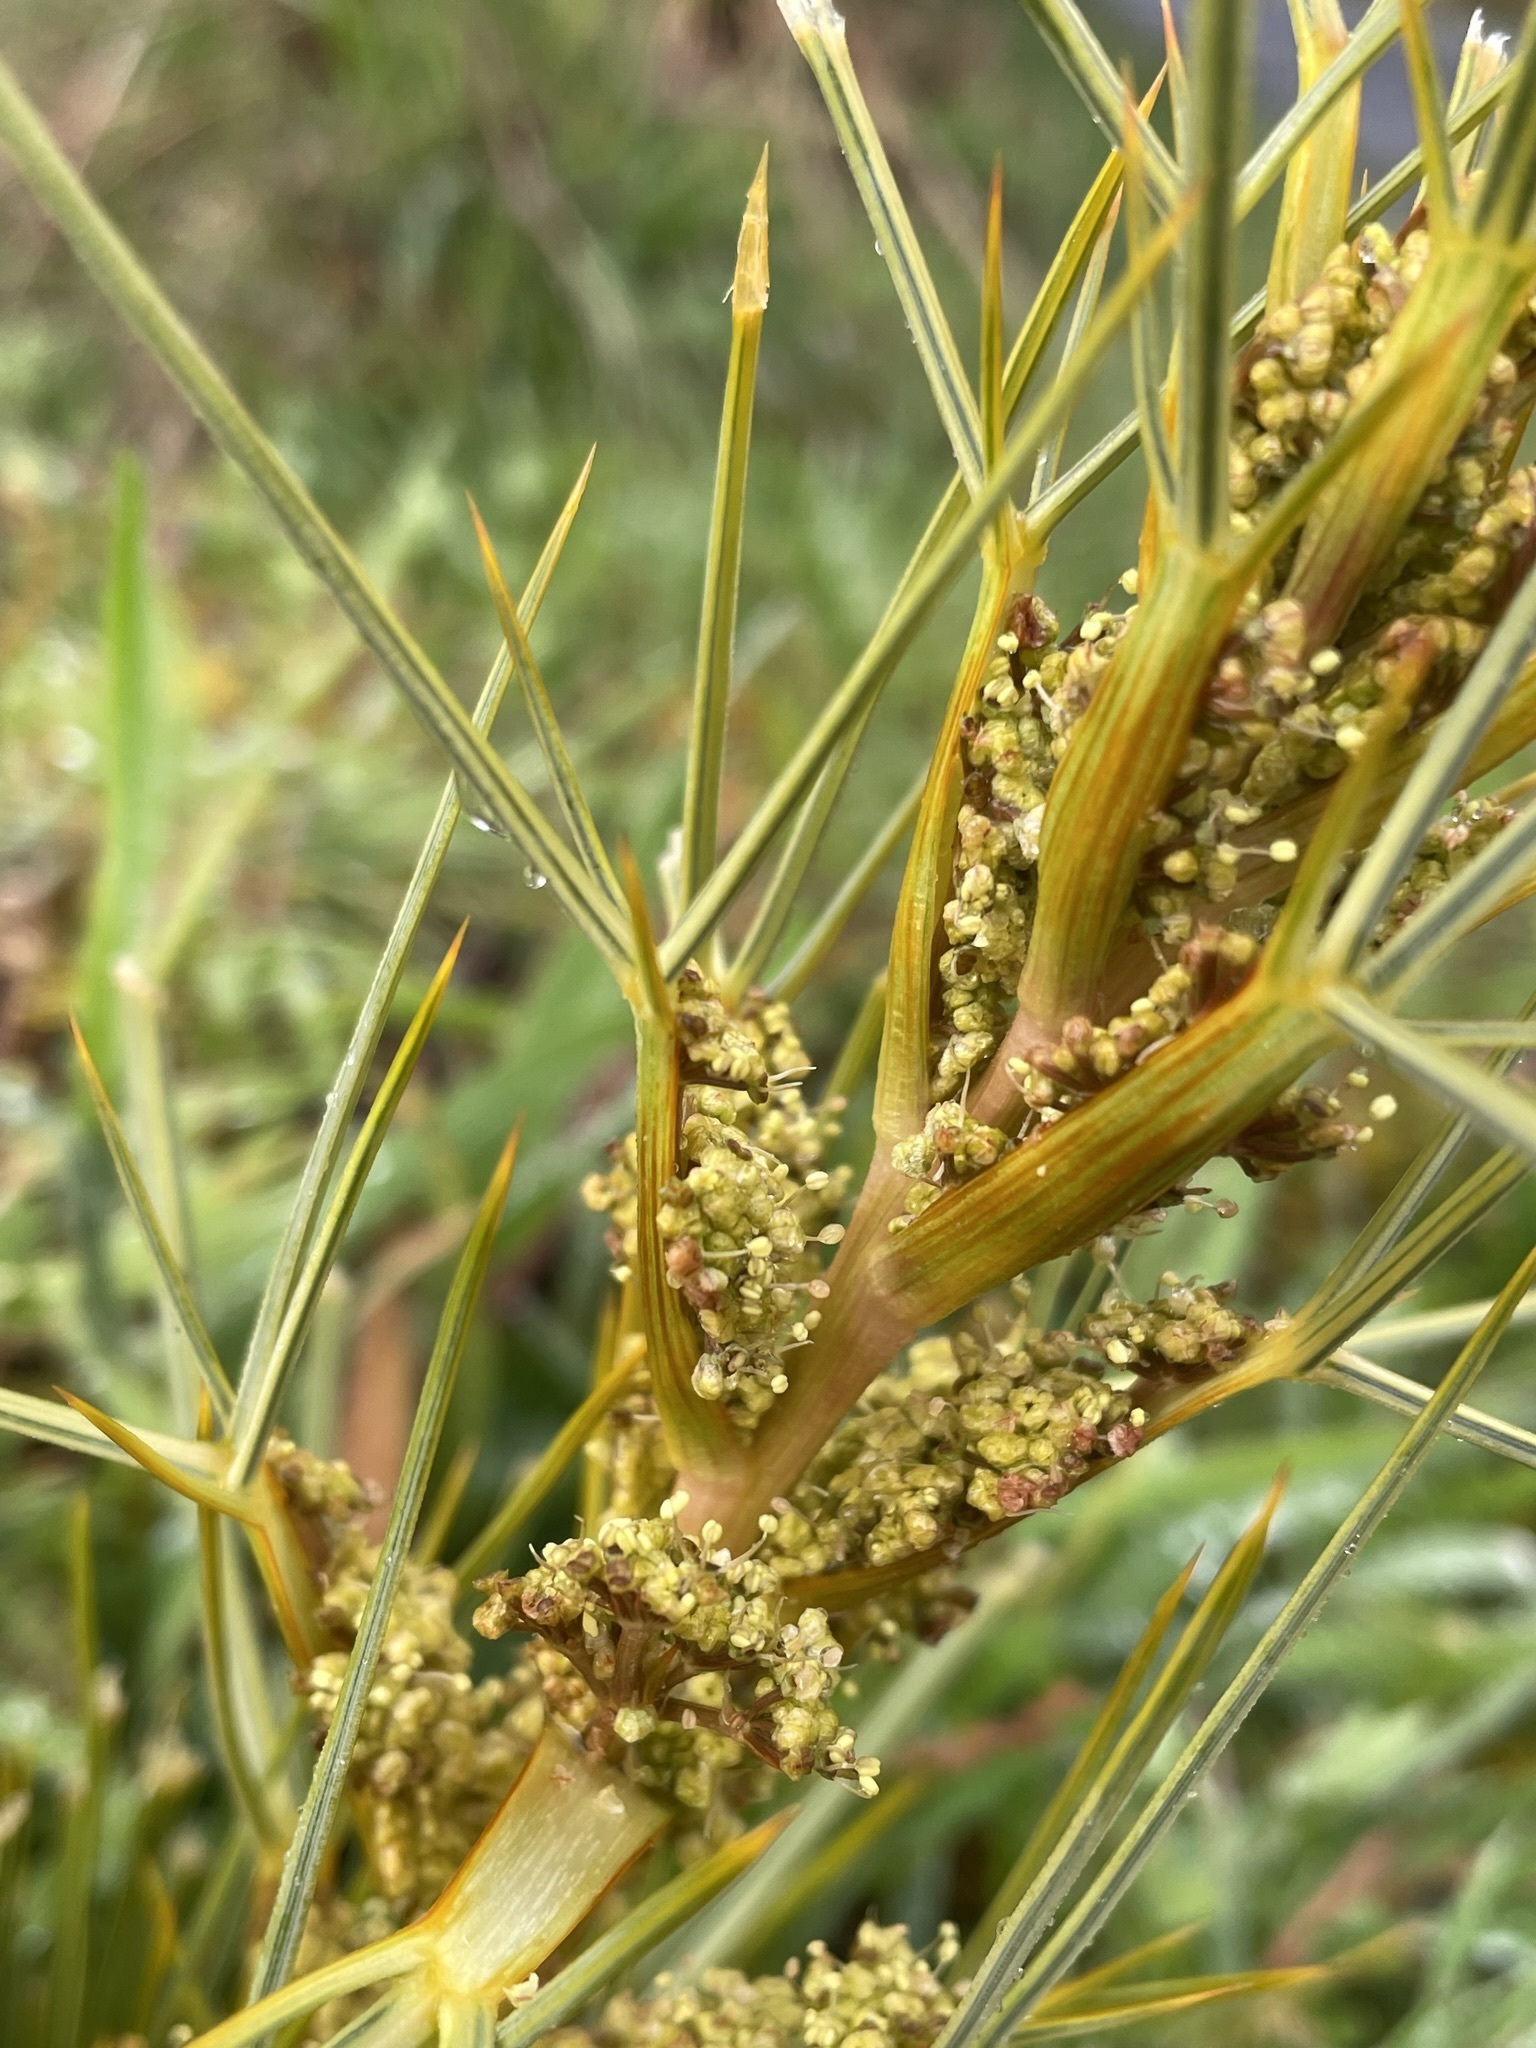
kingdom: Plantae
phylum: Tracheophyta
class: Magnoliopsida
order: Apiales
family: Apiaceae
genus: Aciphylla
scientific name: Aciphylla squarrosa
